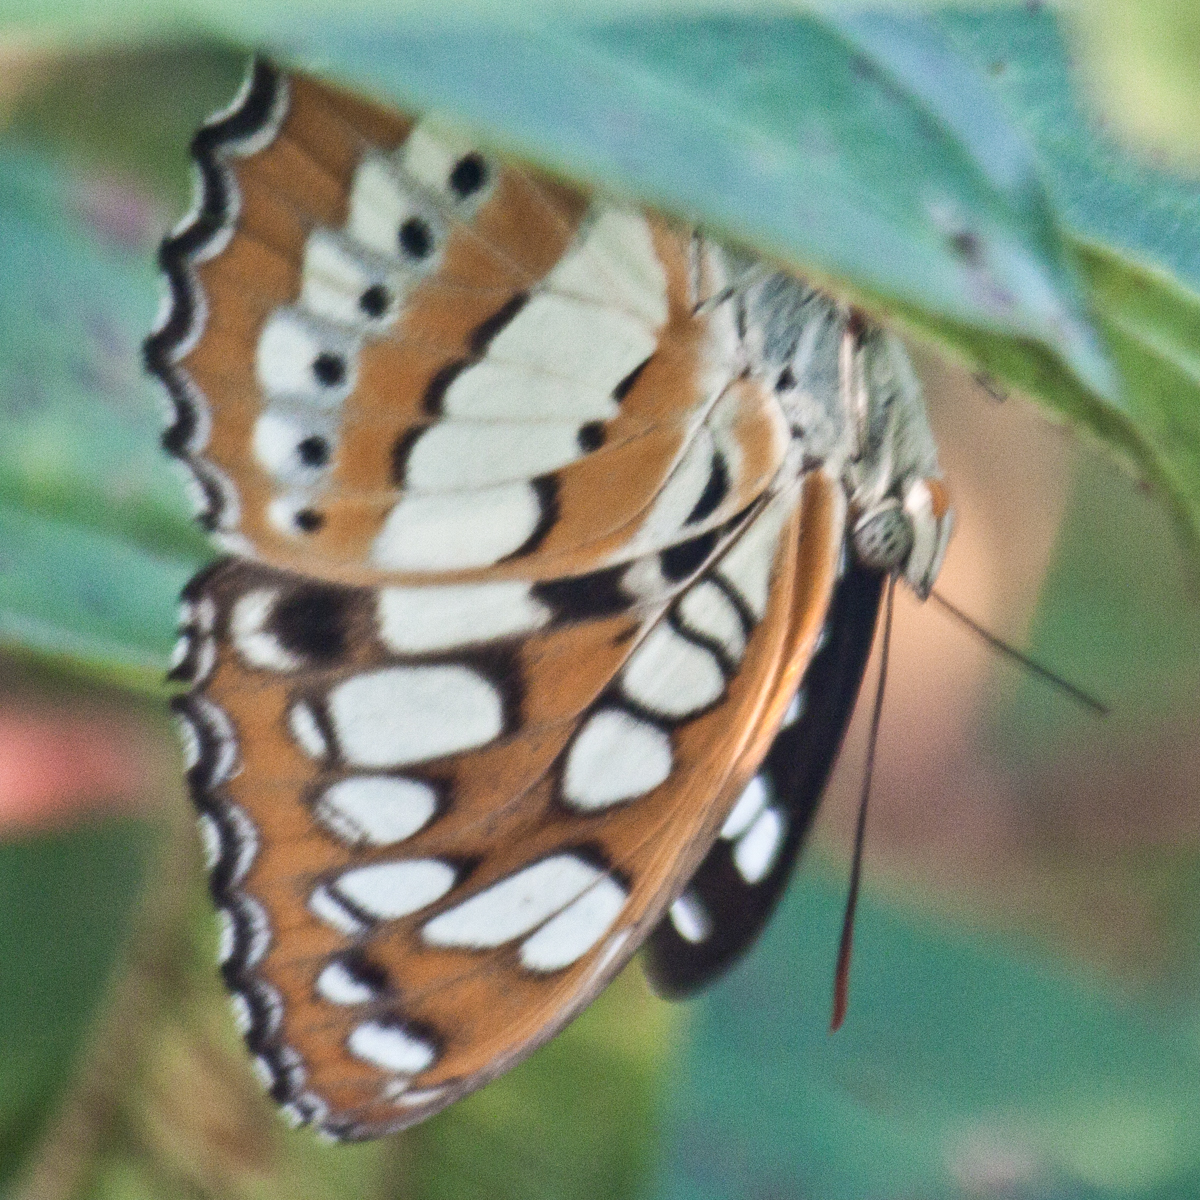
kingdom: Animalia
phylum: Arthropoda
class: Insecta
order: Lepidoptera
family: Nymphalidae
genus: Parathyma
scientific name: Parathyma perius
